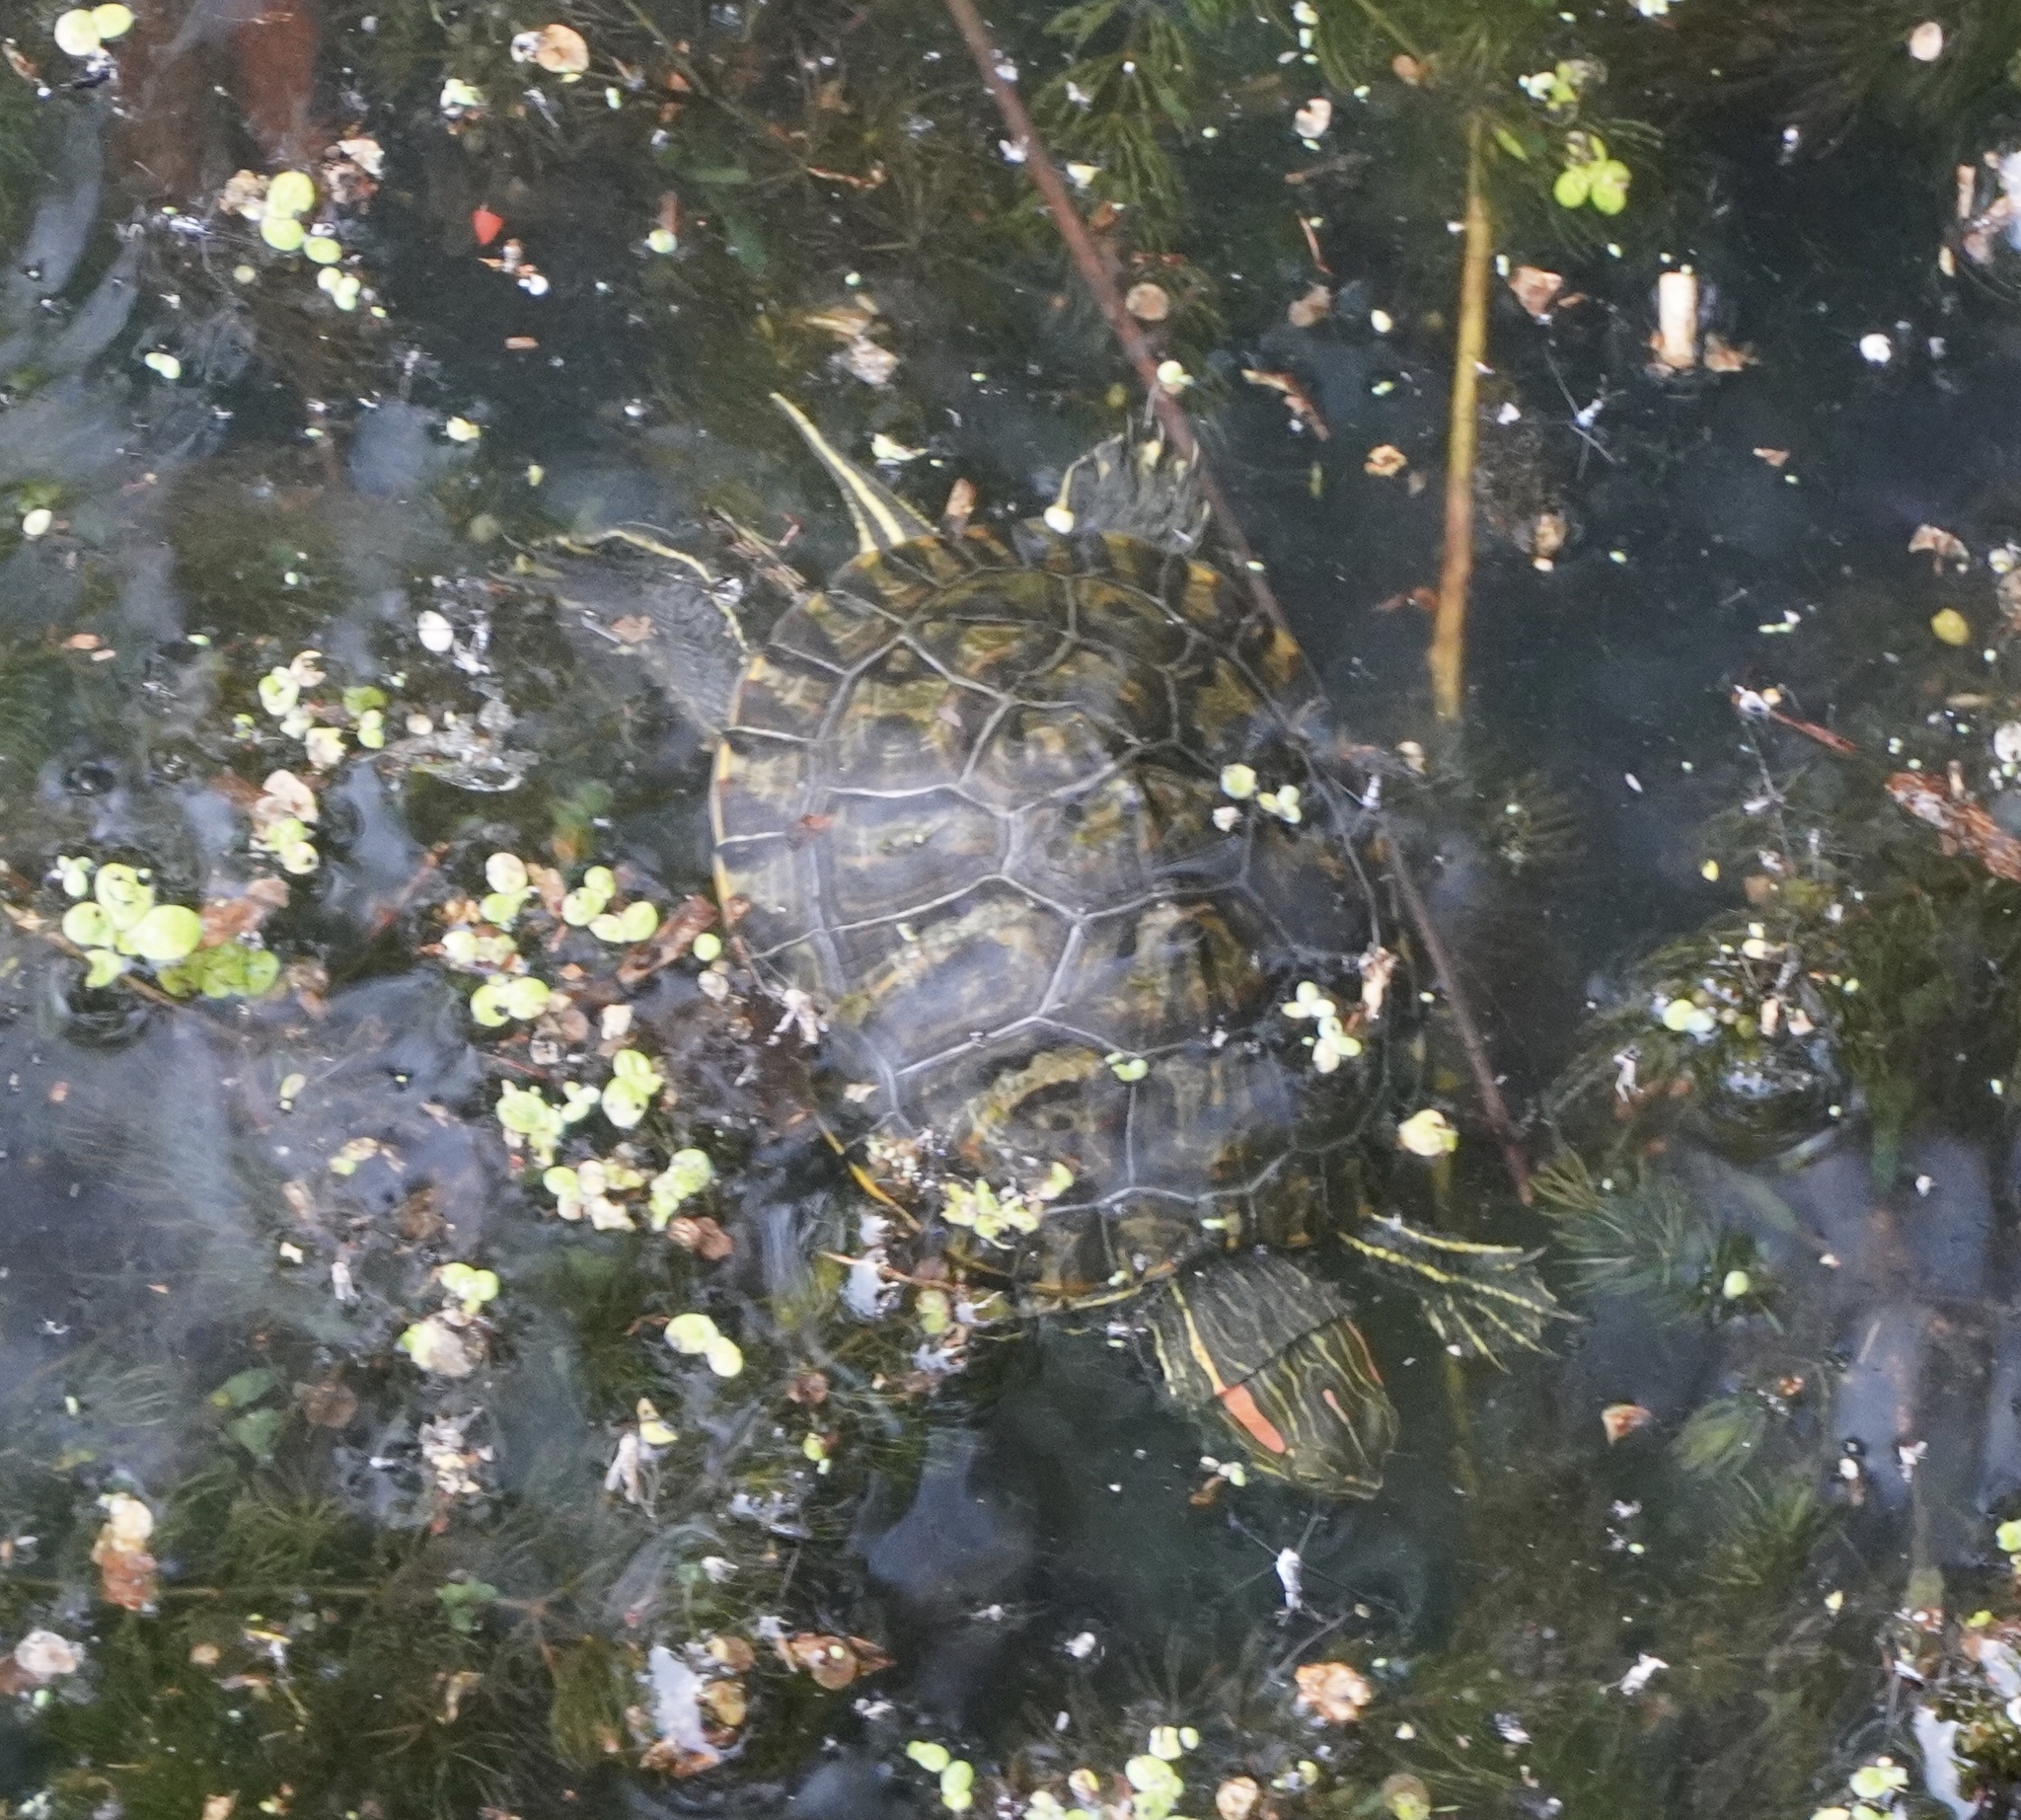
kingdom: Animalia
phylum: Chordata
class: Testudines
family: Emydidae
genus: Trachemys
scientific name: Trachemys scripta
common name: Slider
